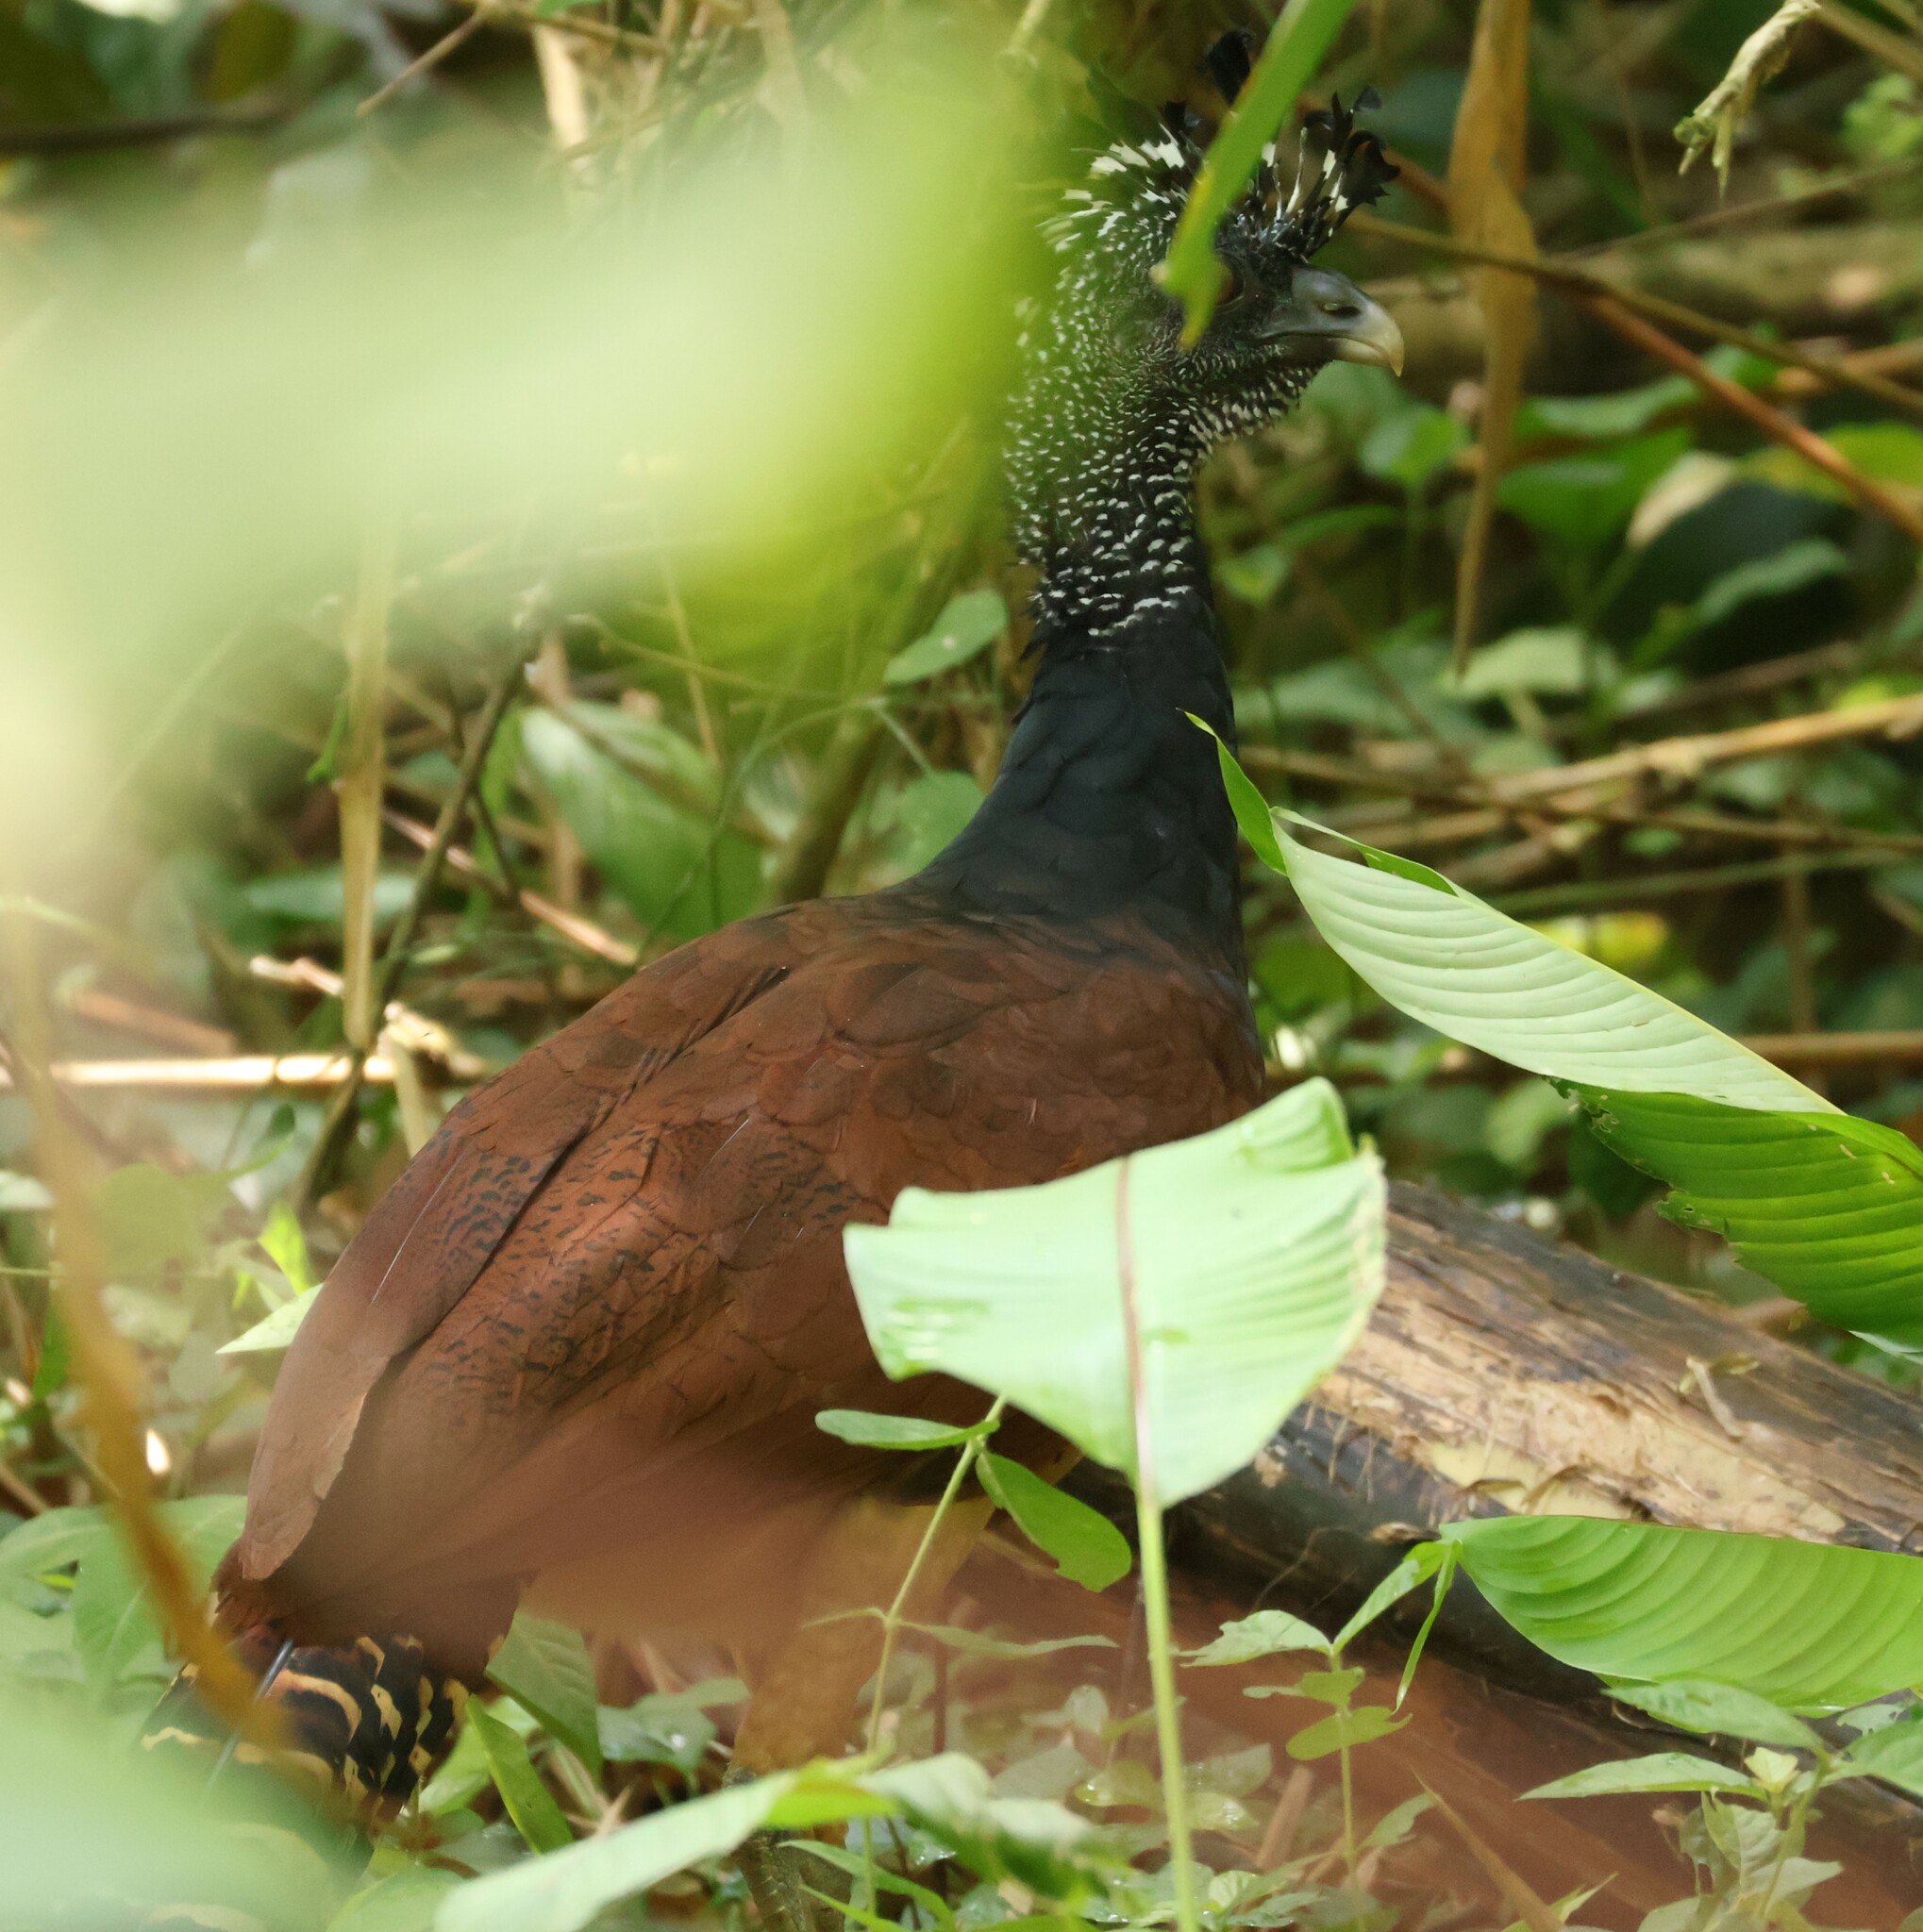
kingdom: Animalia
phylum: Chordata
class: Aves
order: Galliformes
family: Cracidae
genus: Crax
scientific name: Crax rubra
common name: Great curassow
